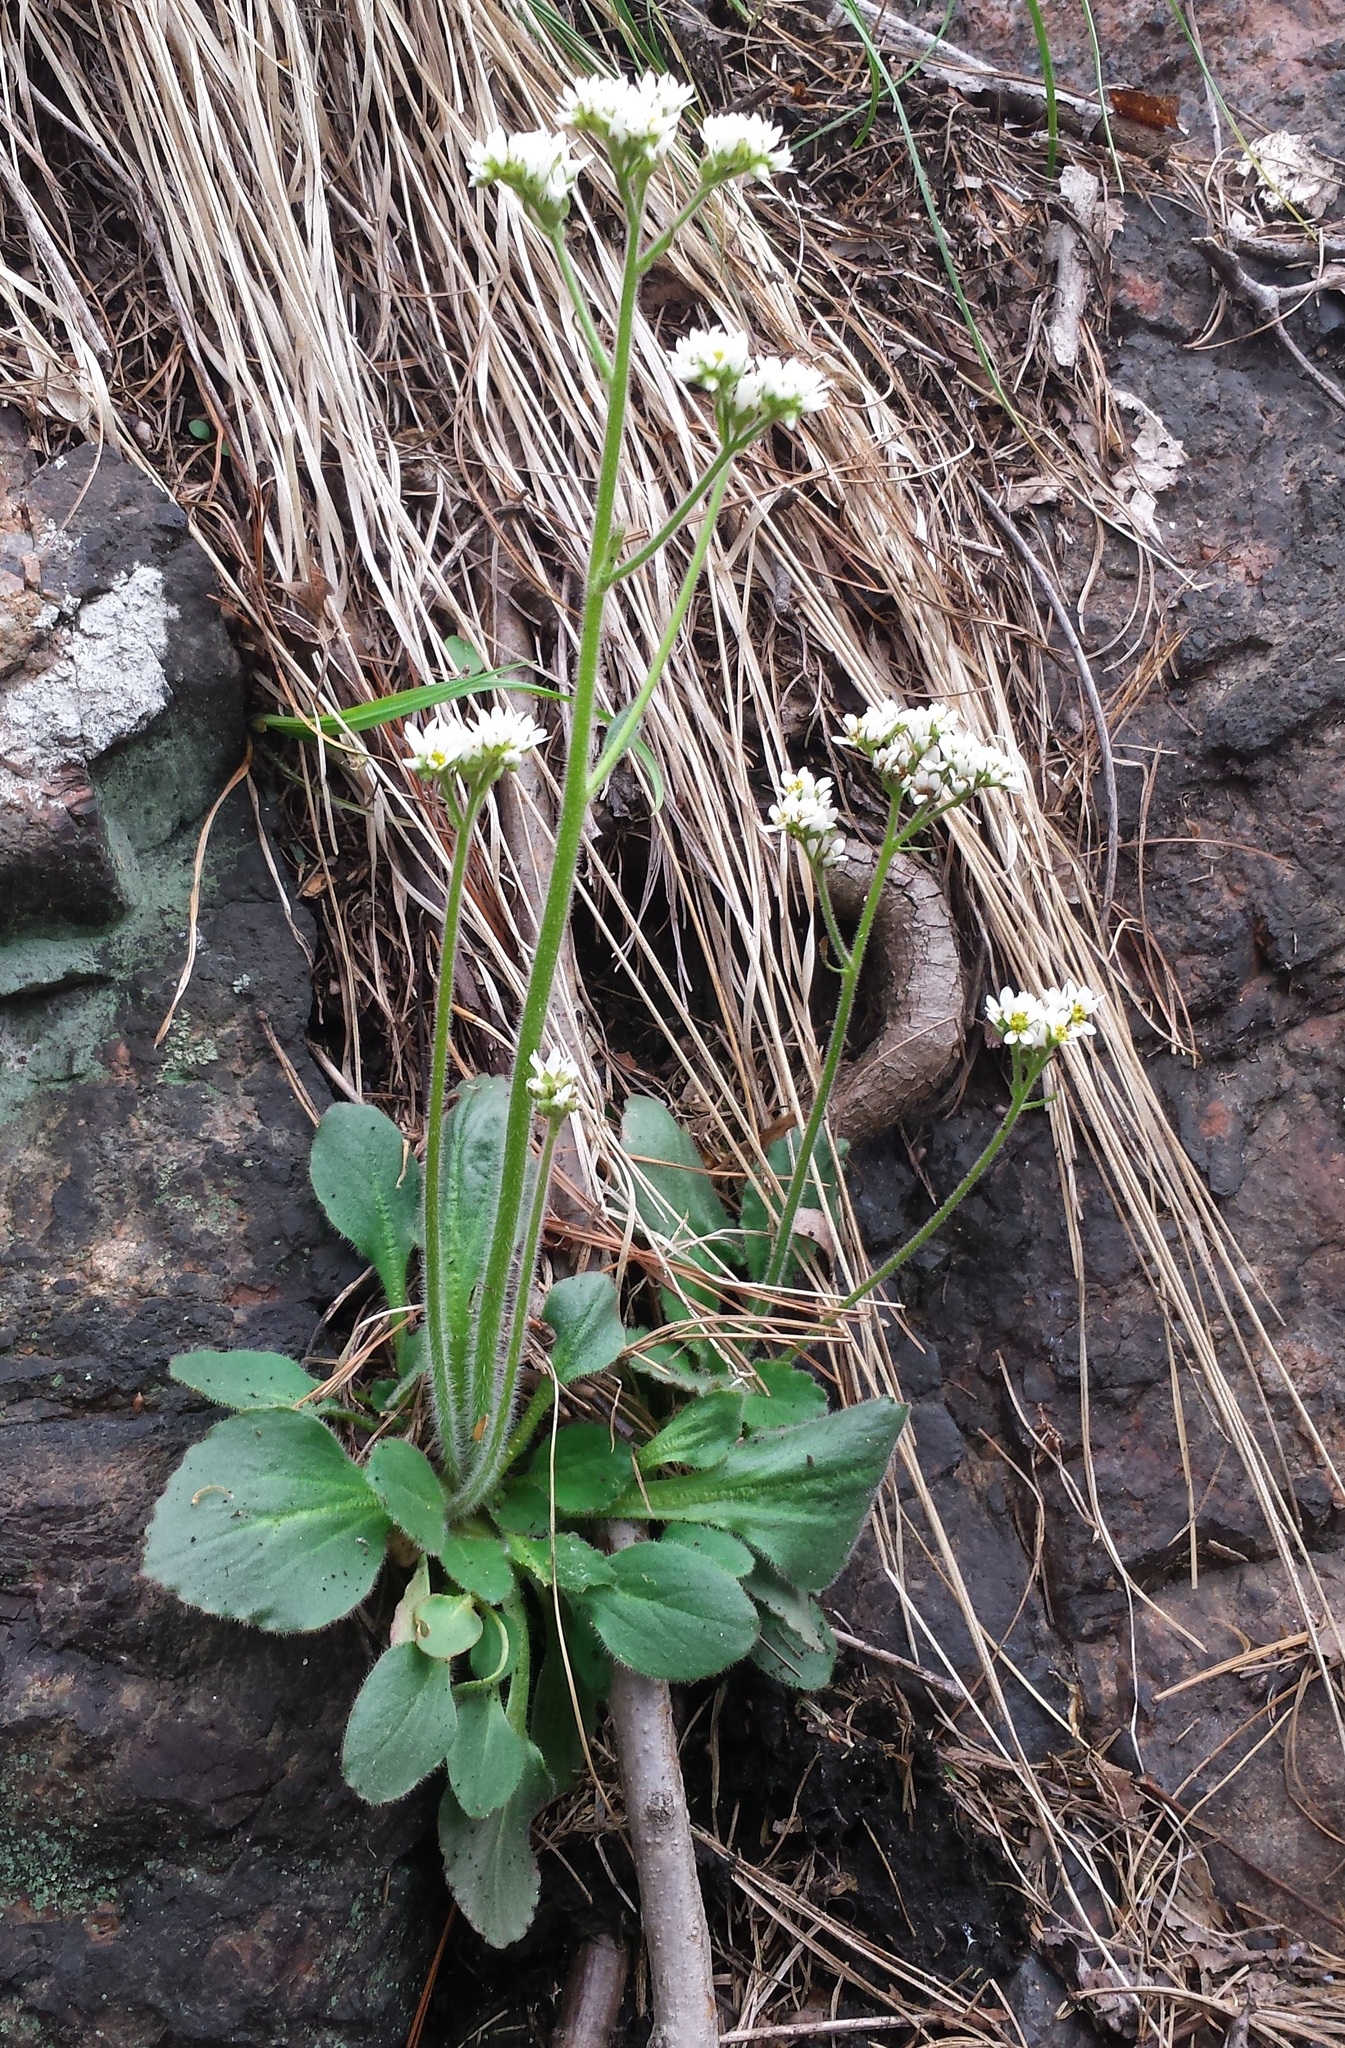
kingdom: Plantae
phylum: Tracheophyta
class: Magnoliopsida
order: Saxifragales
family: Saxifragaceae
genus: Micranthes
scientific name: Micranthes virginiensis
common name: Early saxifrage
